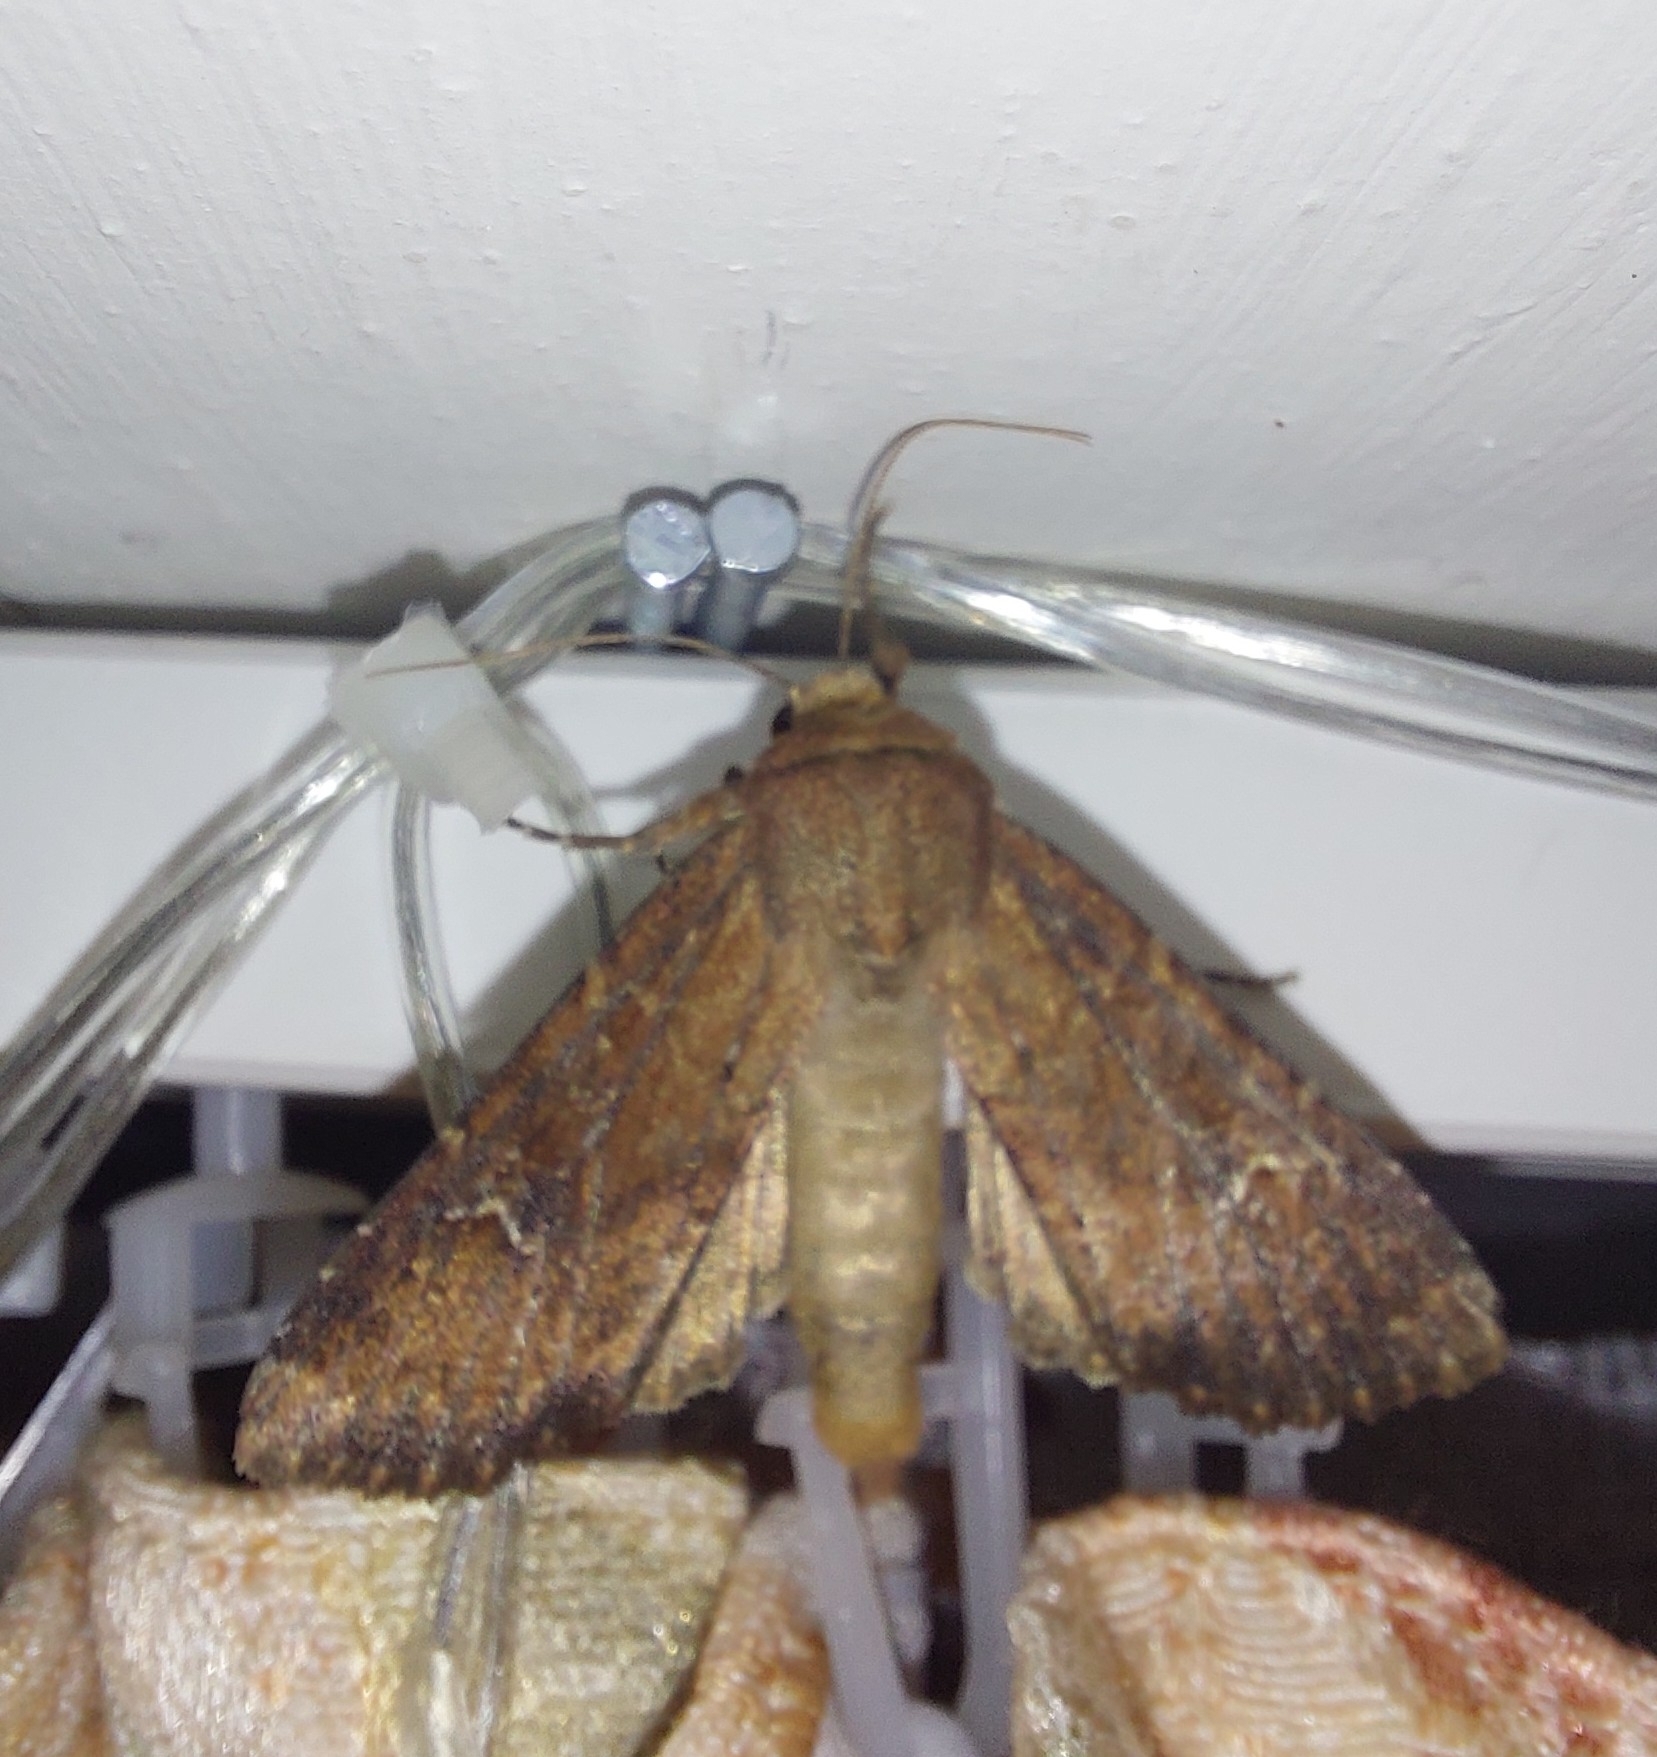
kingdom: Animalia
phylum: Arthropoda
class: Insecta
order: Lepidoptera
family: Noctuidae
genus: Apamea
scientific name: Apamea lateritia
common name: Scarce brindle
